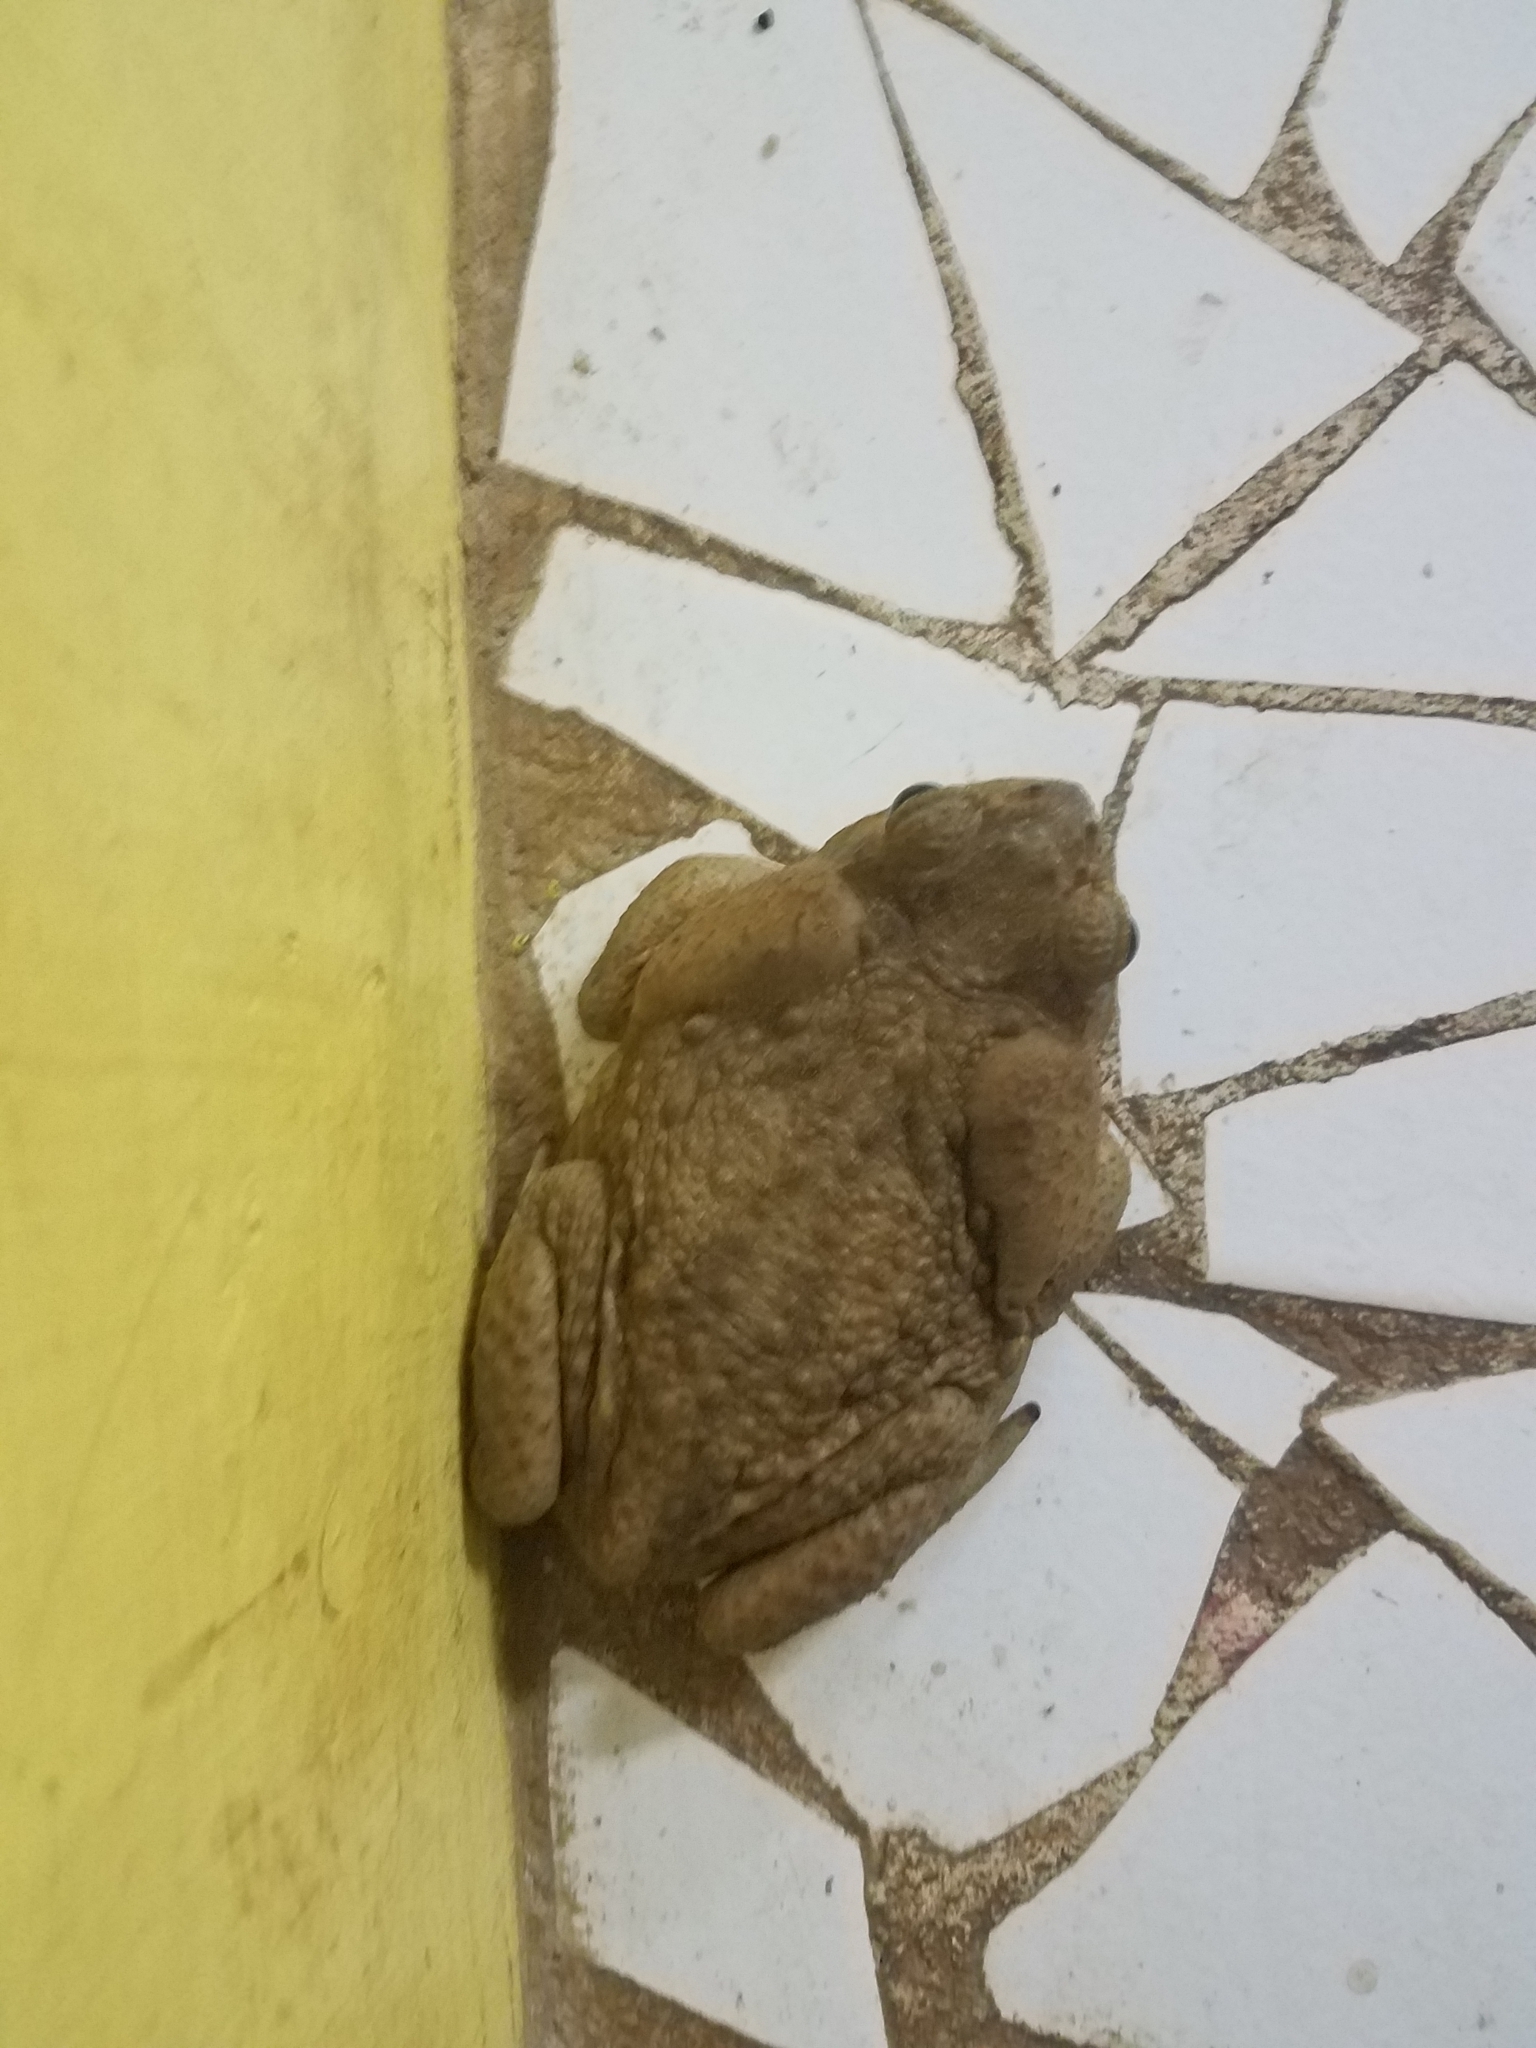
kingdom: Animalia
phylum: Chordata
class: Amphibia
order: Anura
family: Bufonidae
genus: Rhinella
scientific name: Rhinella horribilis
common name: Mesoamerican cane toad
